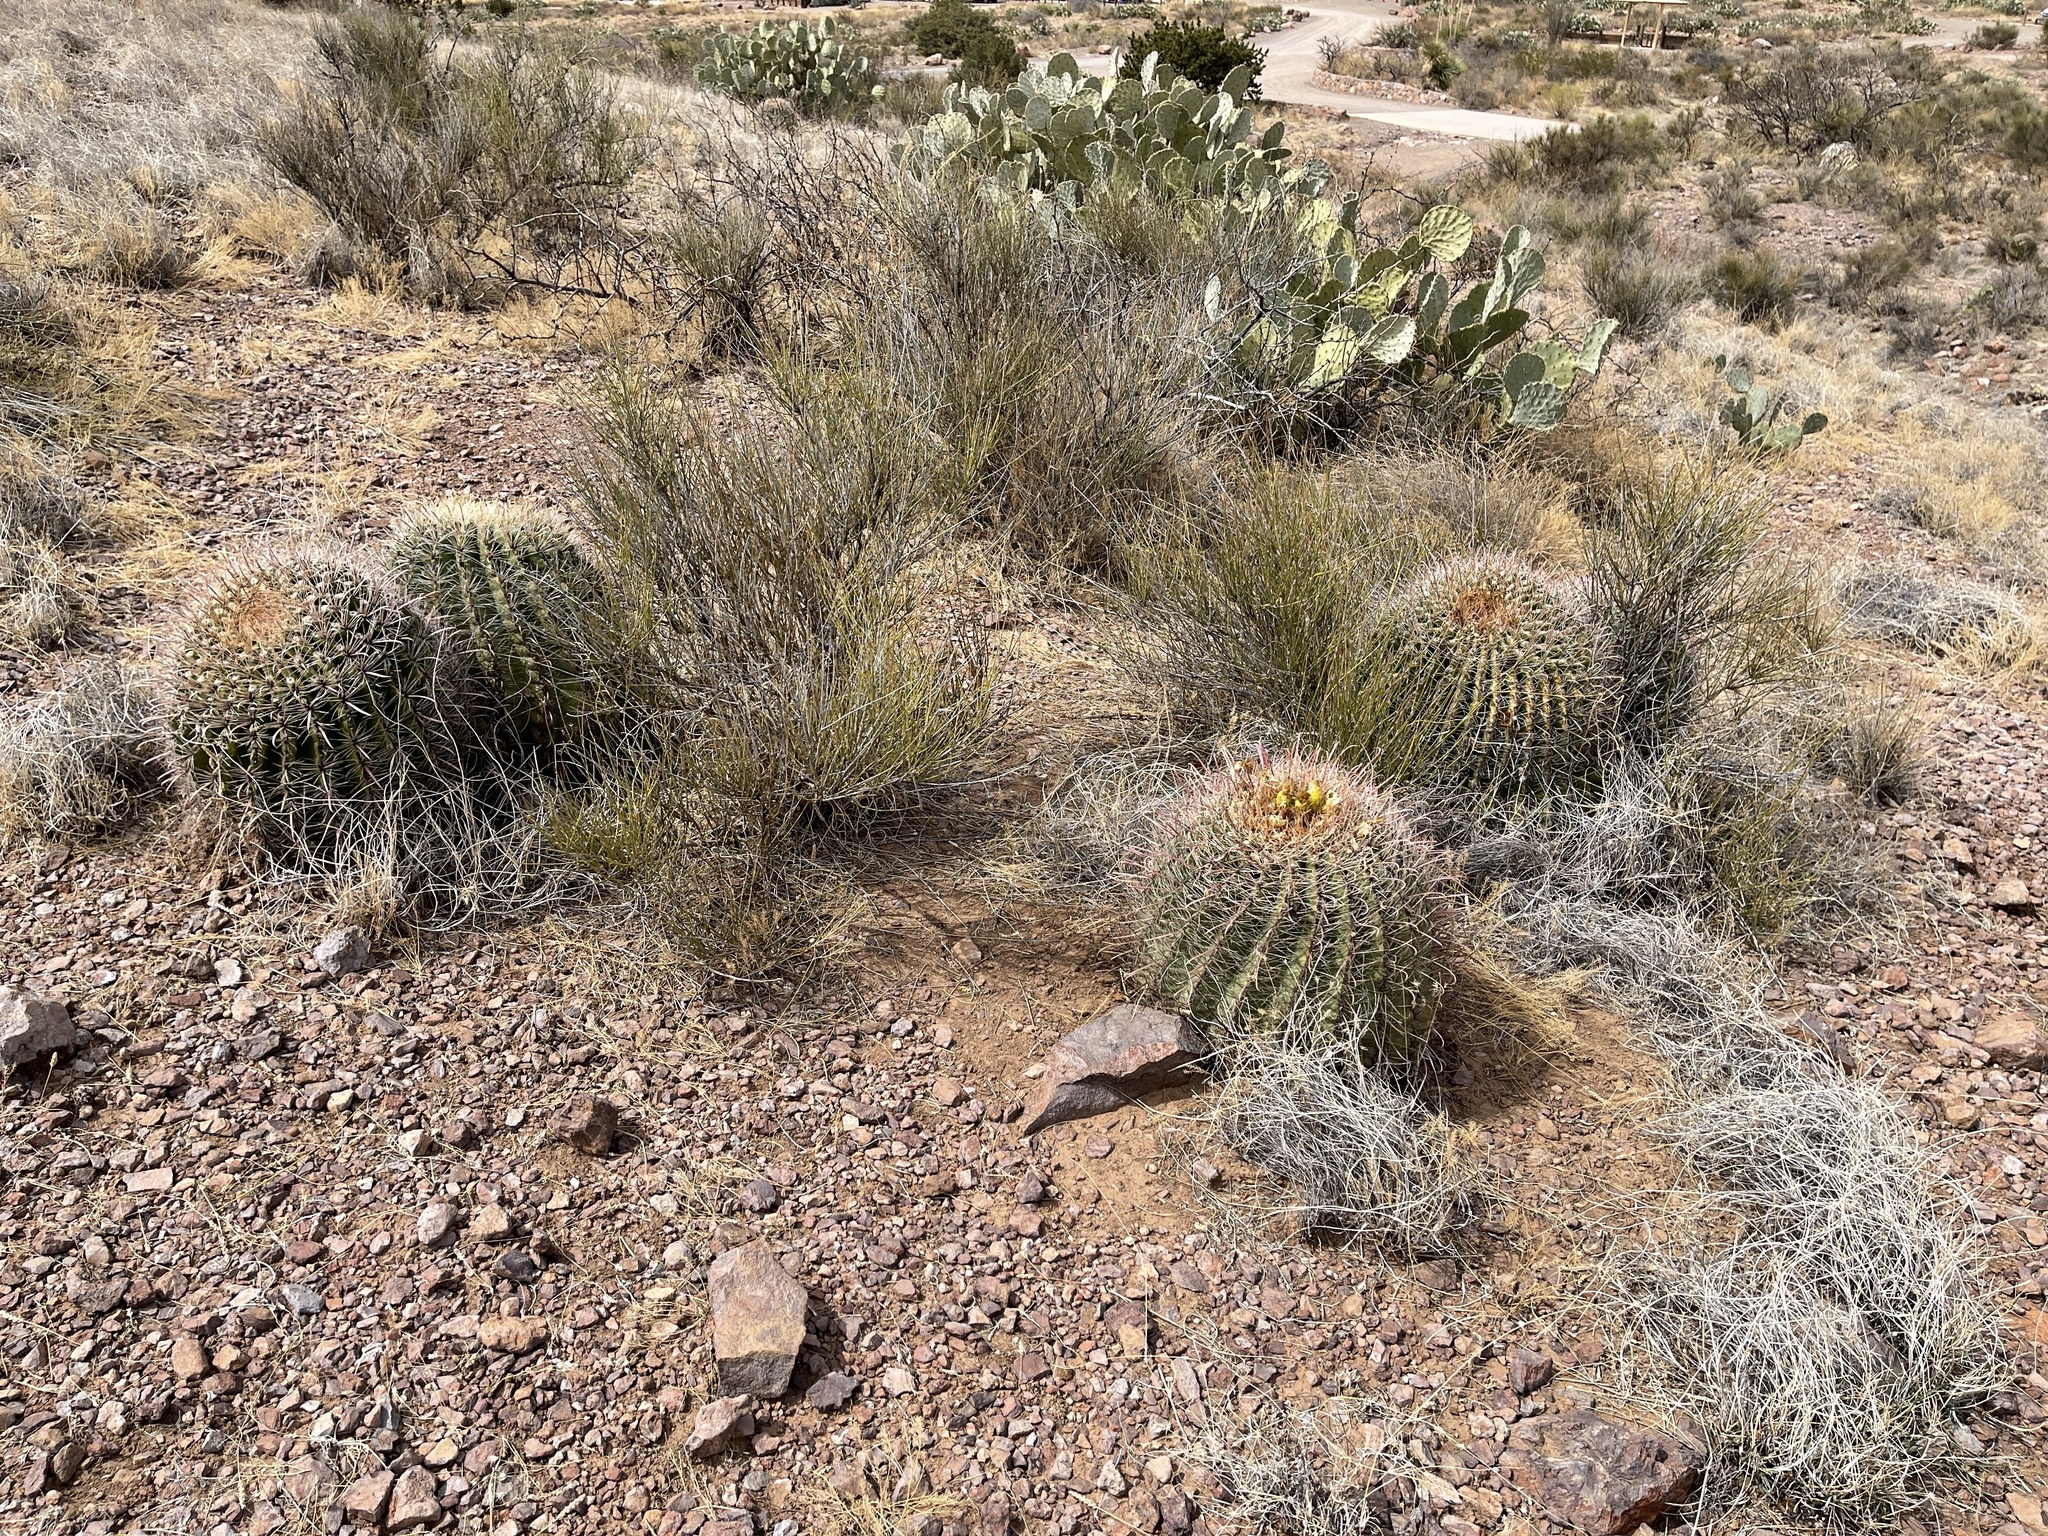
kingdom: Plantae
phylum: Tracheophyta
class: Magnoliopsida
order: Caryophyllales
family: Cactaceae
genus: Ferocactus
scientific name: Ferocactus wislizeni
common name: Candy barrel cactus
